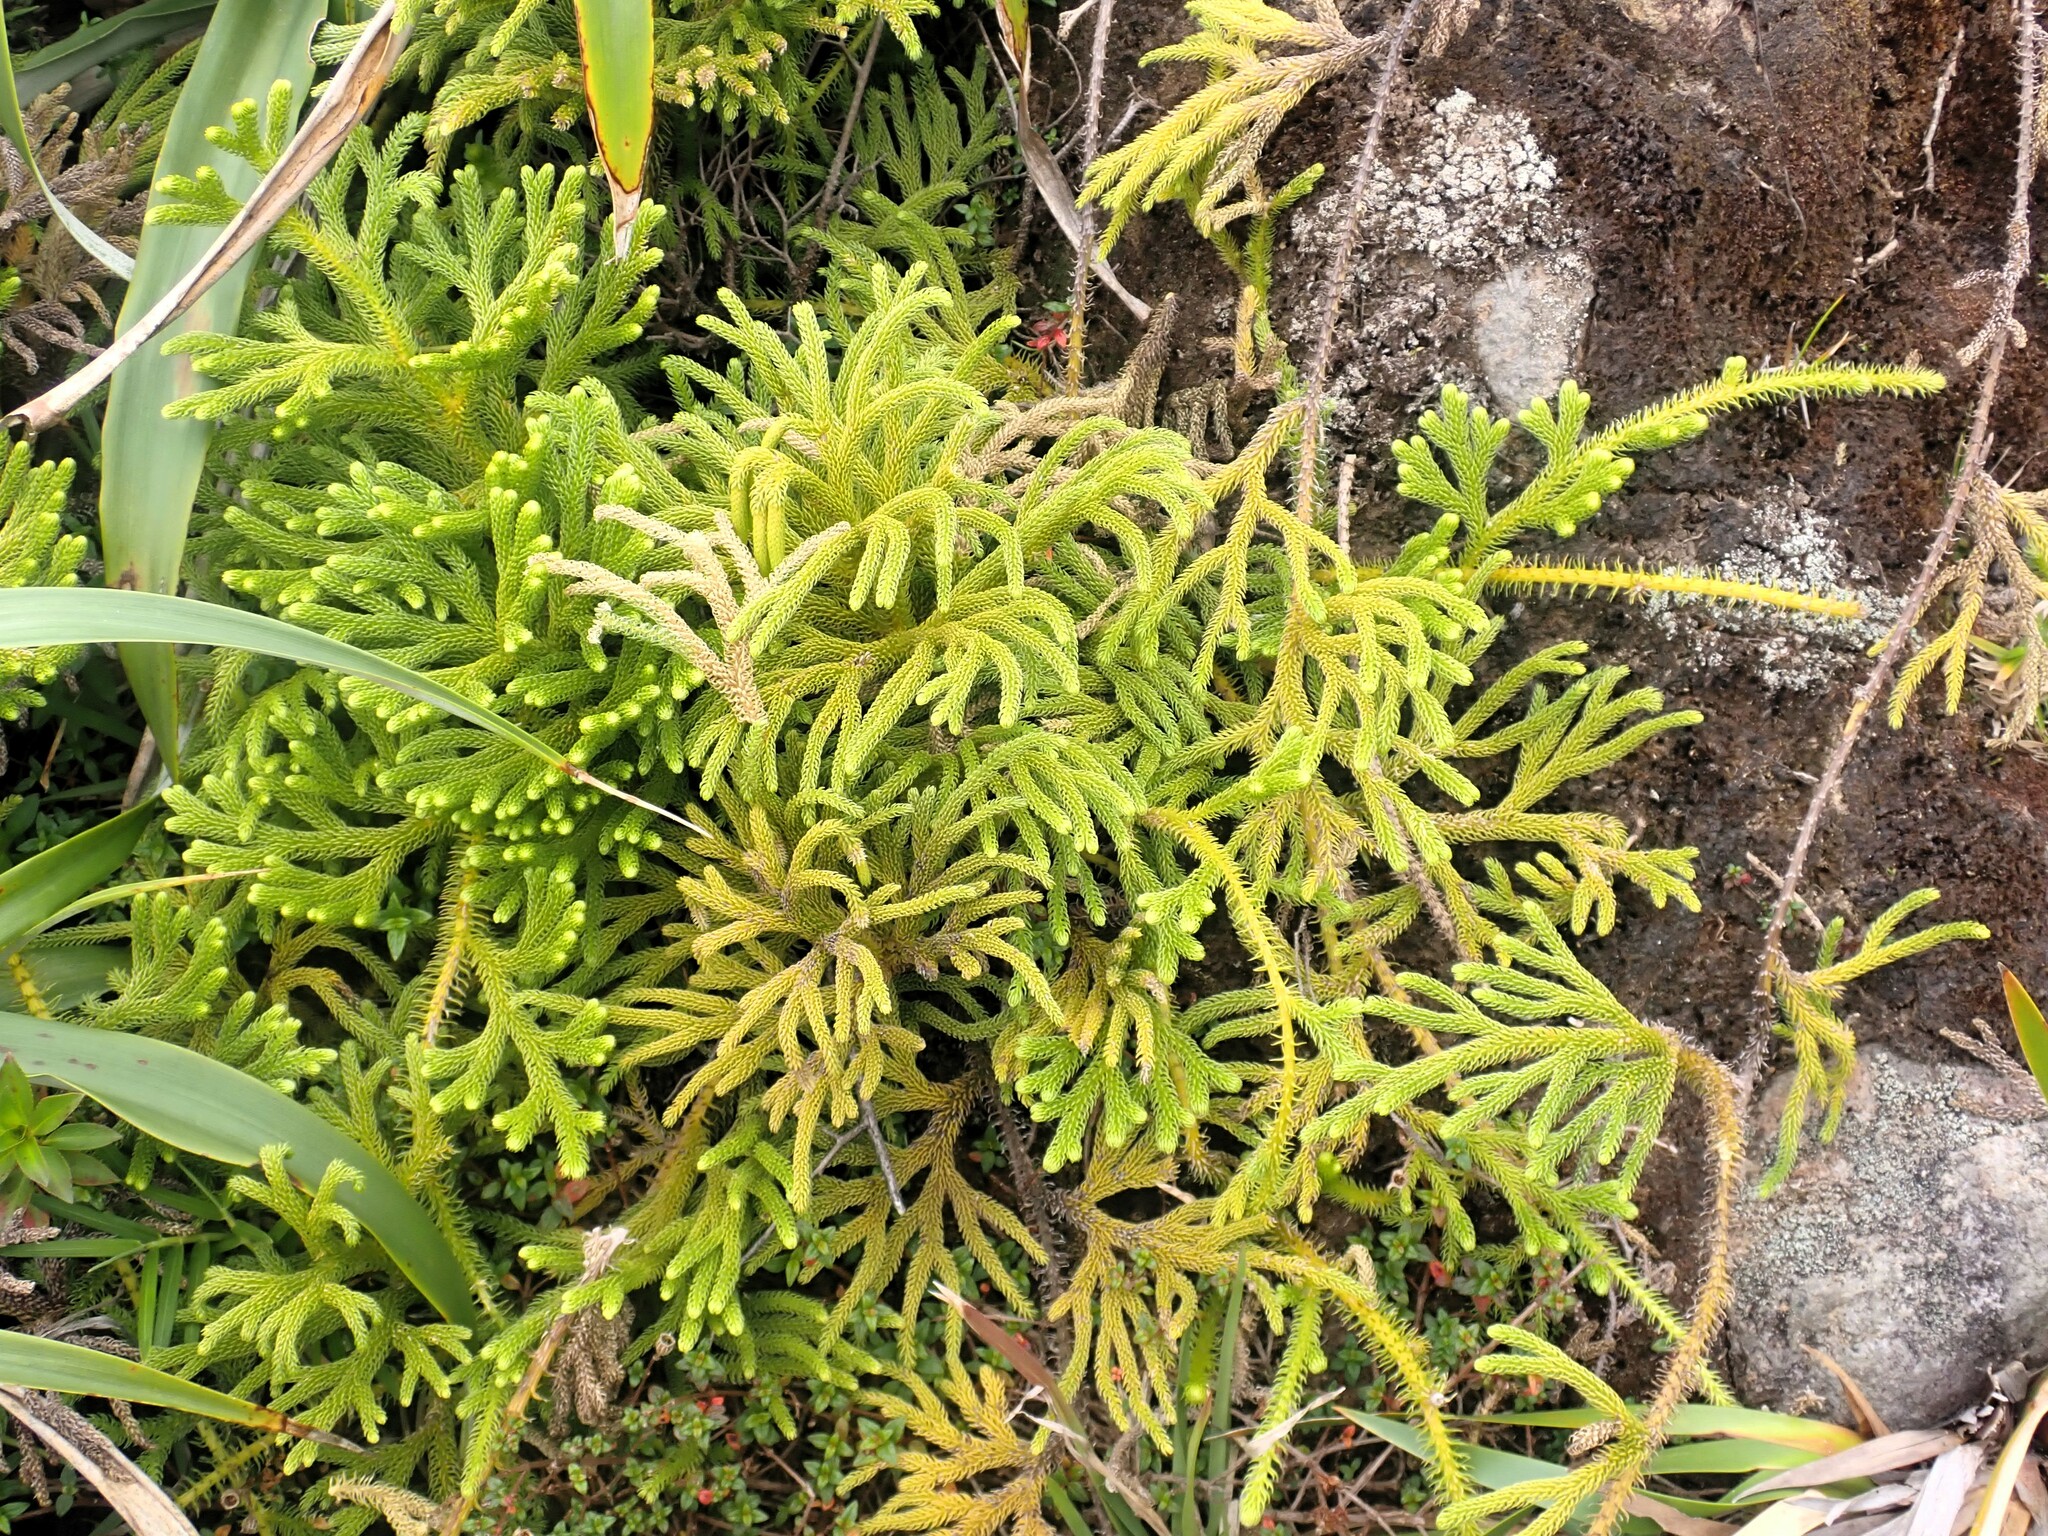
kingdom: Plantae
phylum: Tracheophyta
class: Lycopodiopsida
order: Lycopodiales
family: Lycopodiaceae
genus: Palhinhaea
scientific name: Palhinhaea torta
